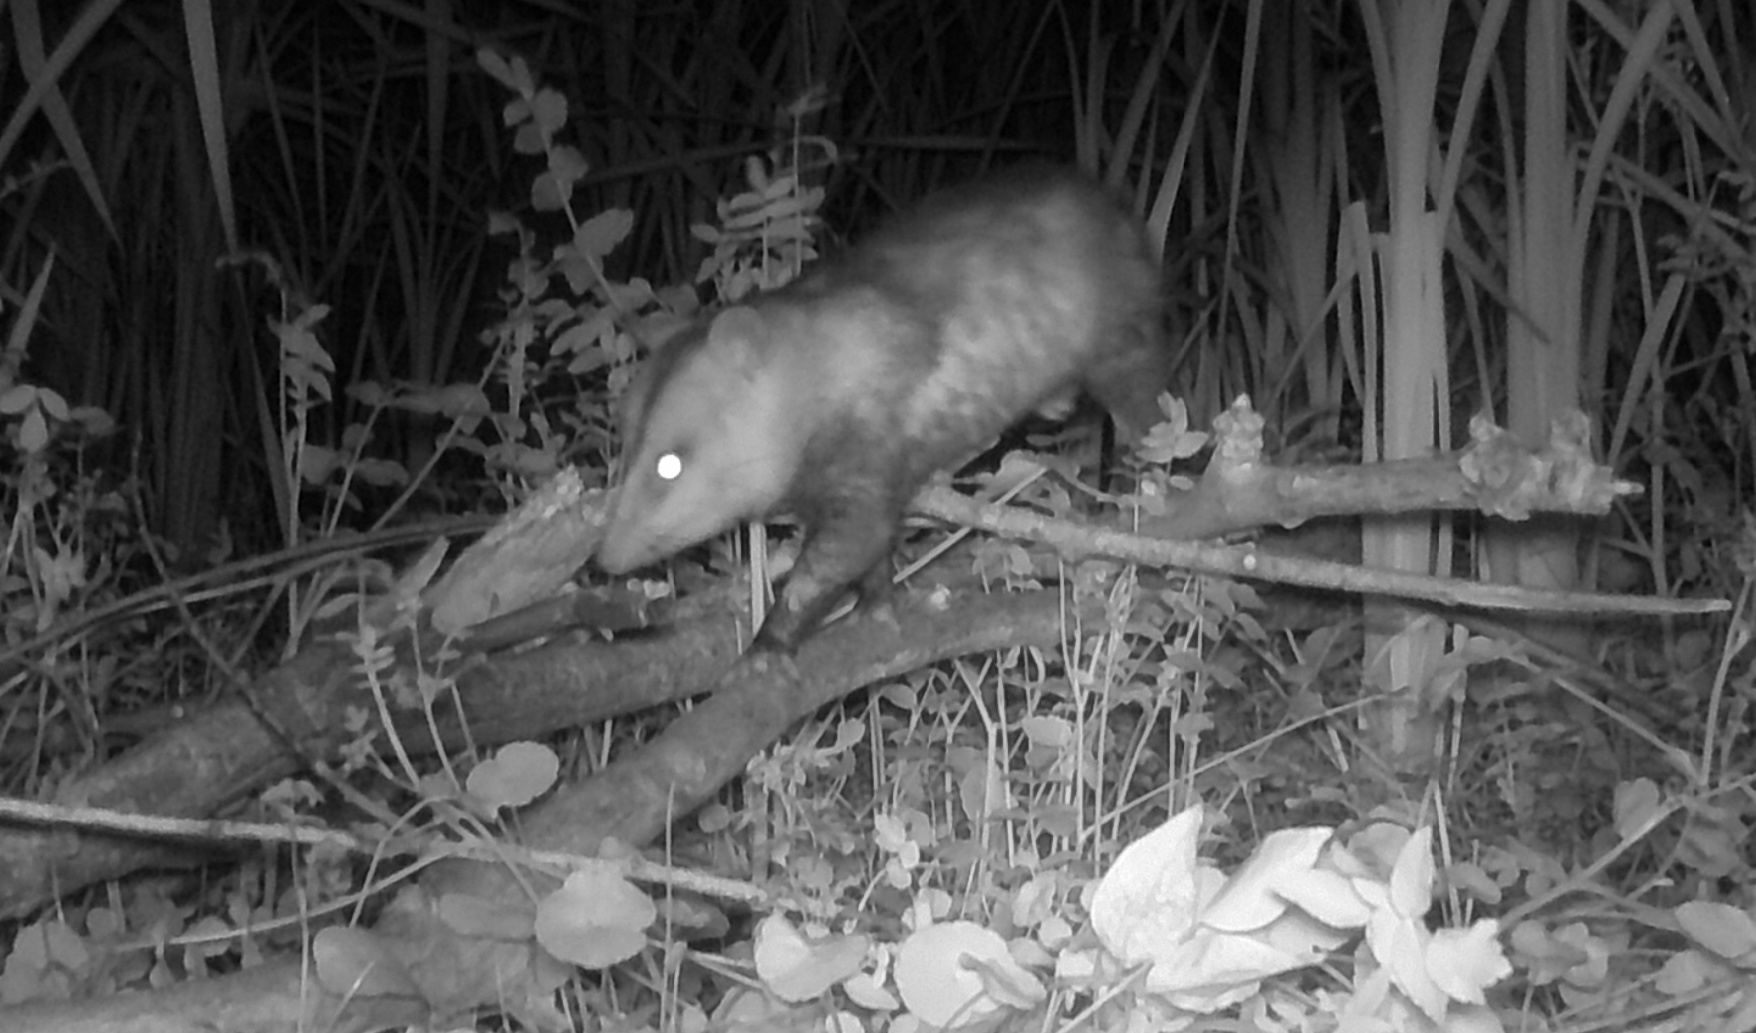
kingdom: Animalia
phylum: Chordata
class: Mammalia
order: Didelphimorphia
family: Didelphidae
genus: Didelphis
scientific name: Didelphis albiventris
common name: White-eared opossum
